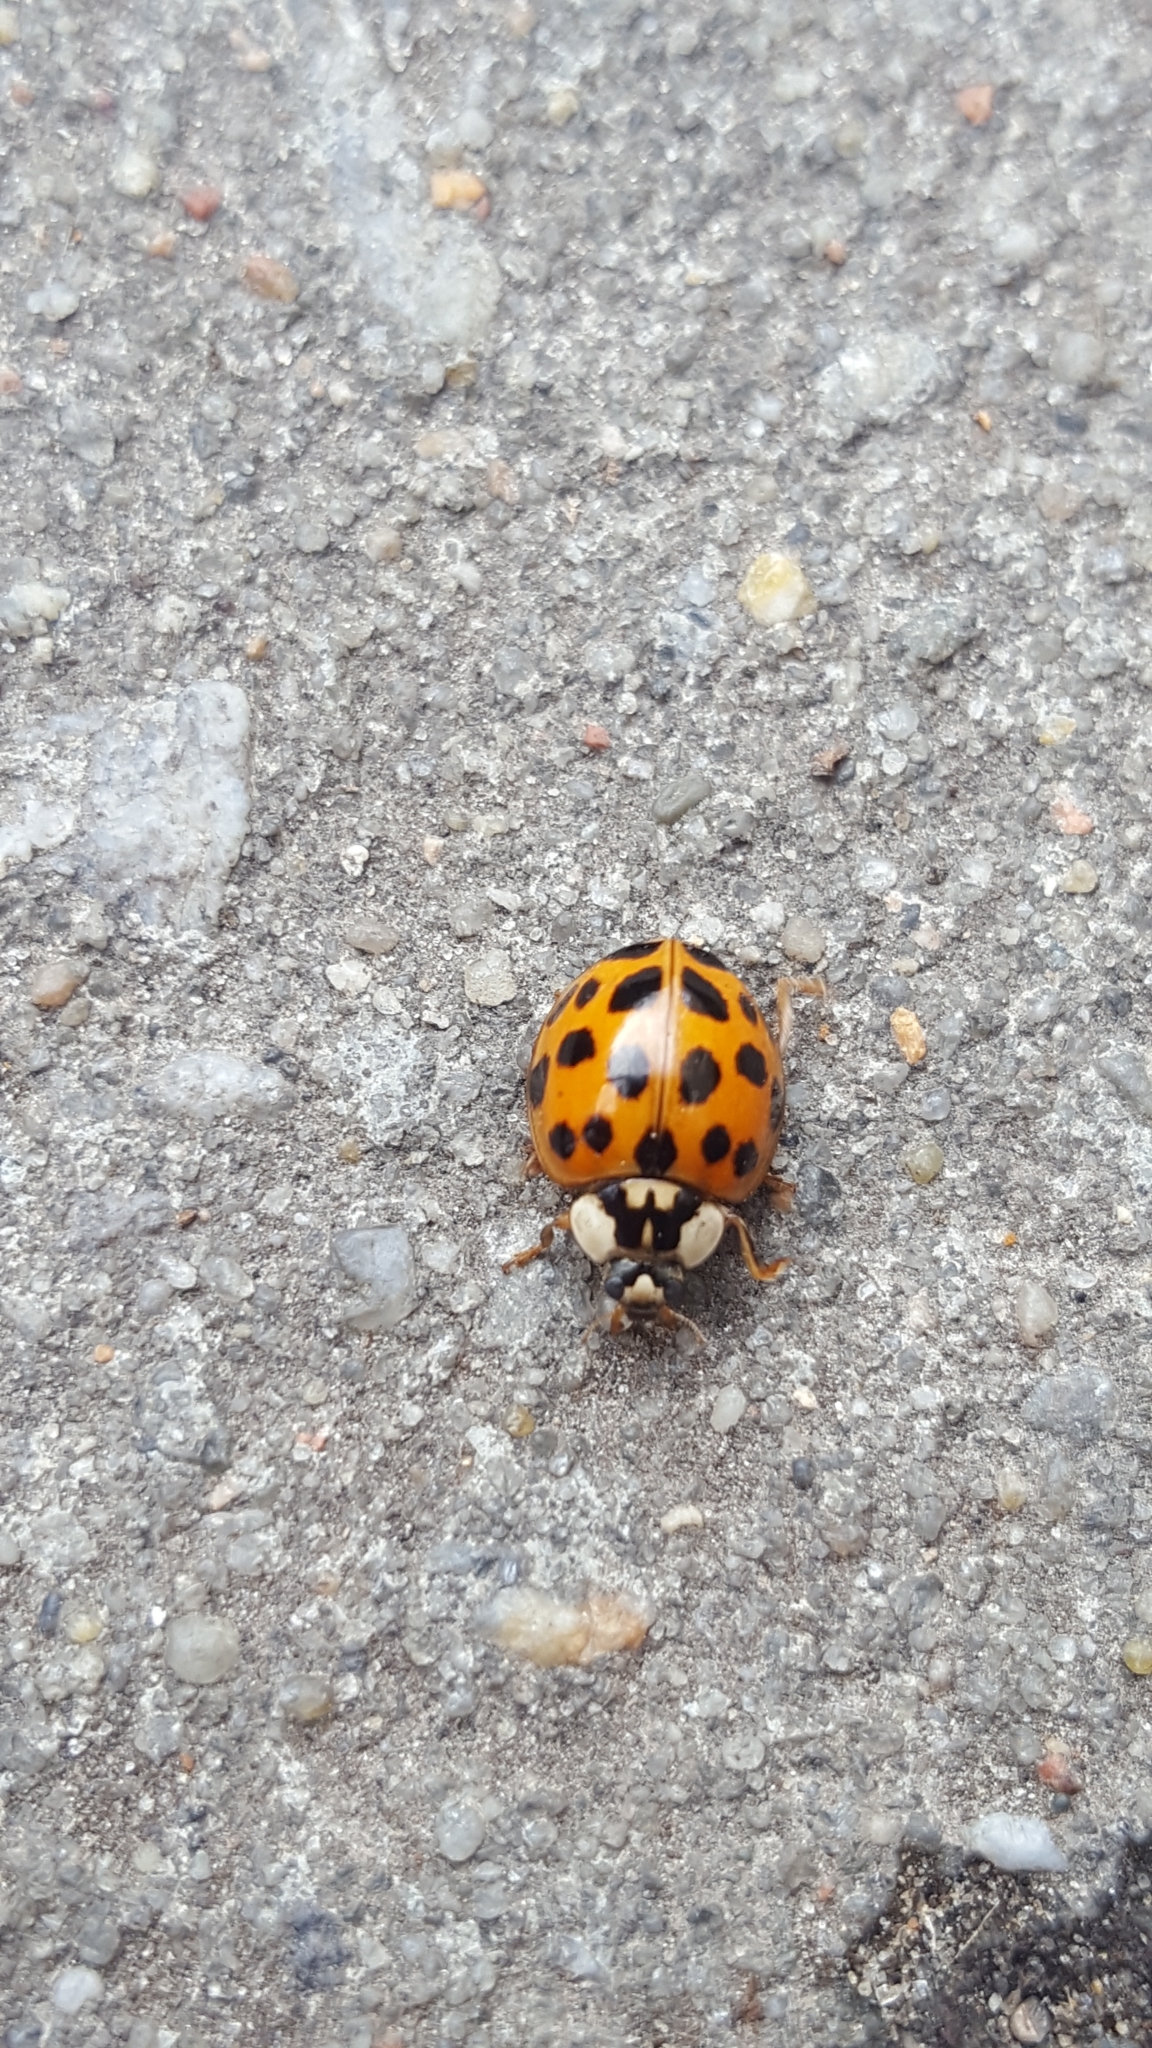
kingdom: Animalia
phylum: Arthropoda
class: Insecta
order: Coleoptera
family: Coccinellidae
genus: Harmonia
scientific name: Harmonia axyridis
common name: Harlequin ladybird
